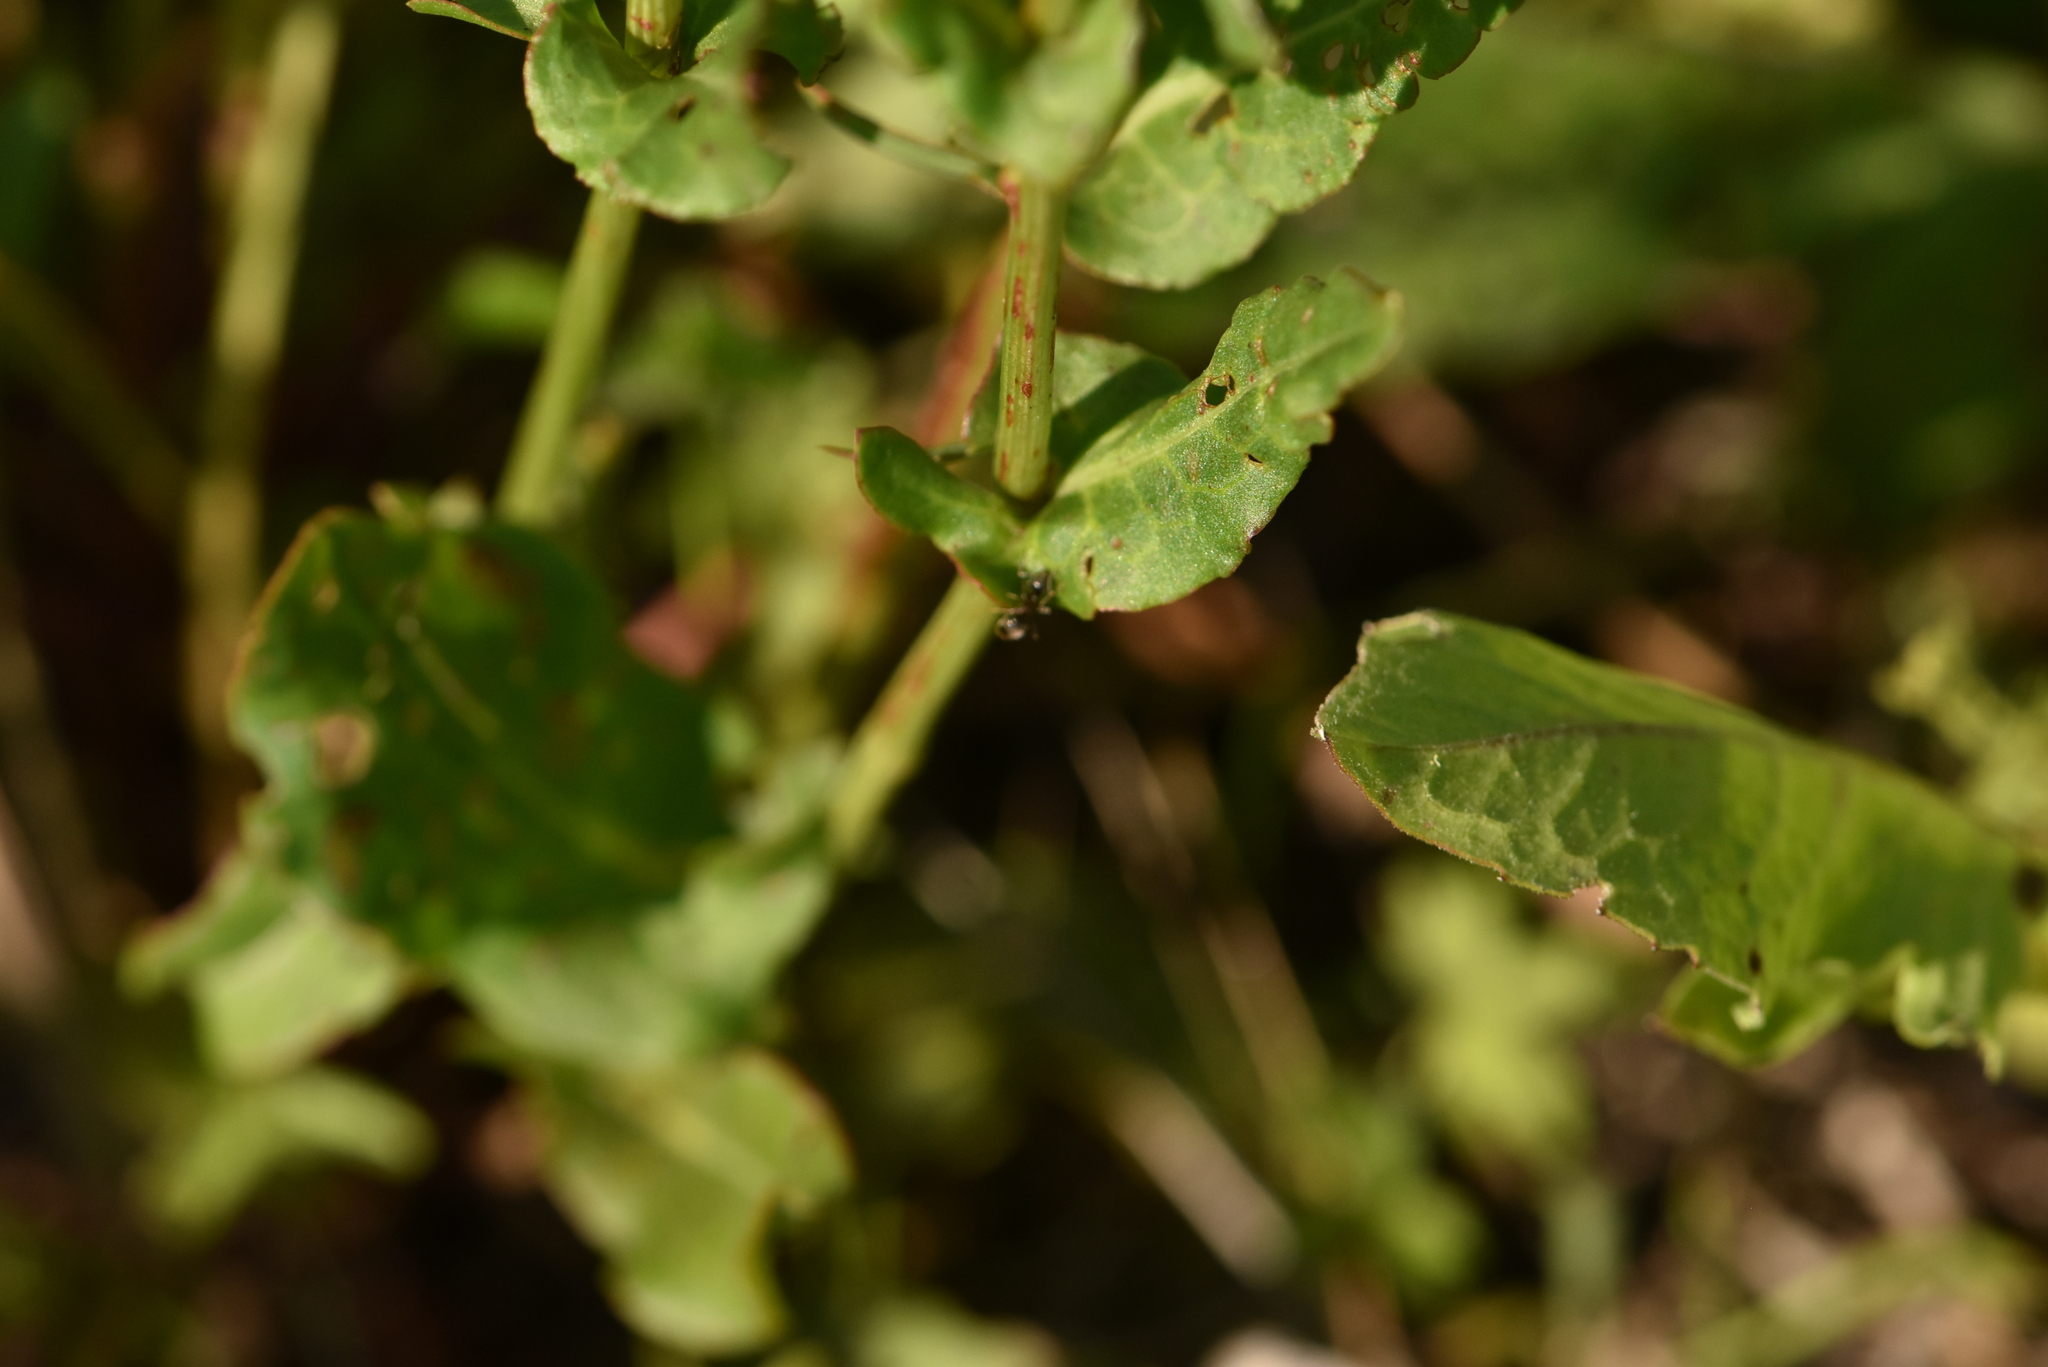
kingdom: Plantae
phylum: Tracheophyta
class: Magnoliopsida
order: Caryophyllales
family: Polygonaceae
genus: Rumex
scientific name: Rumex thyrsiflorus
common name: Garden sorrel
